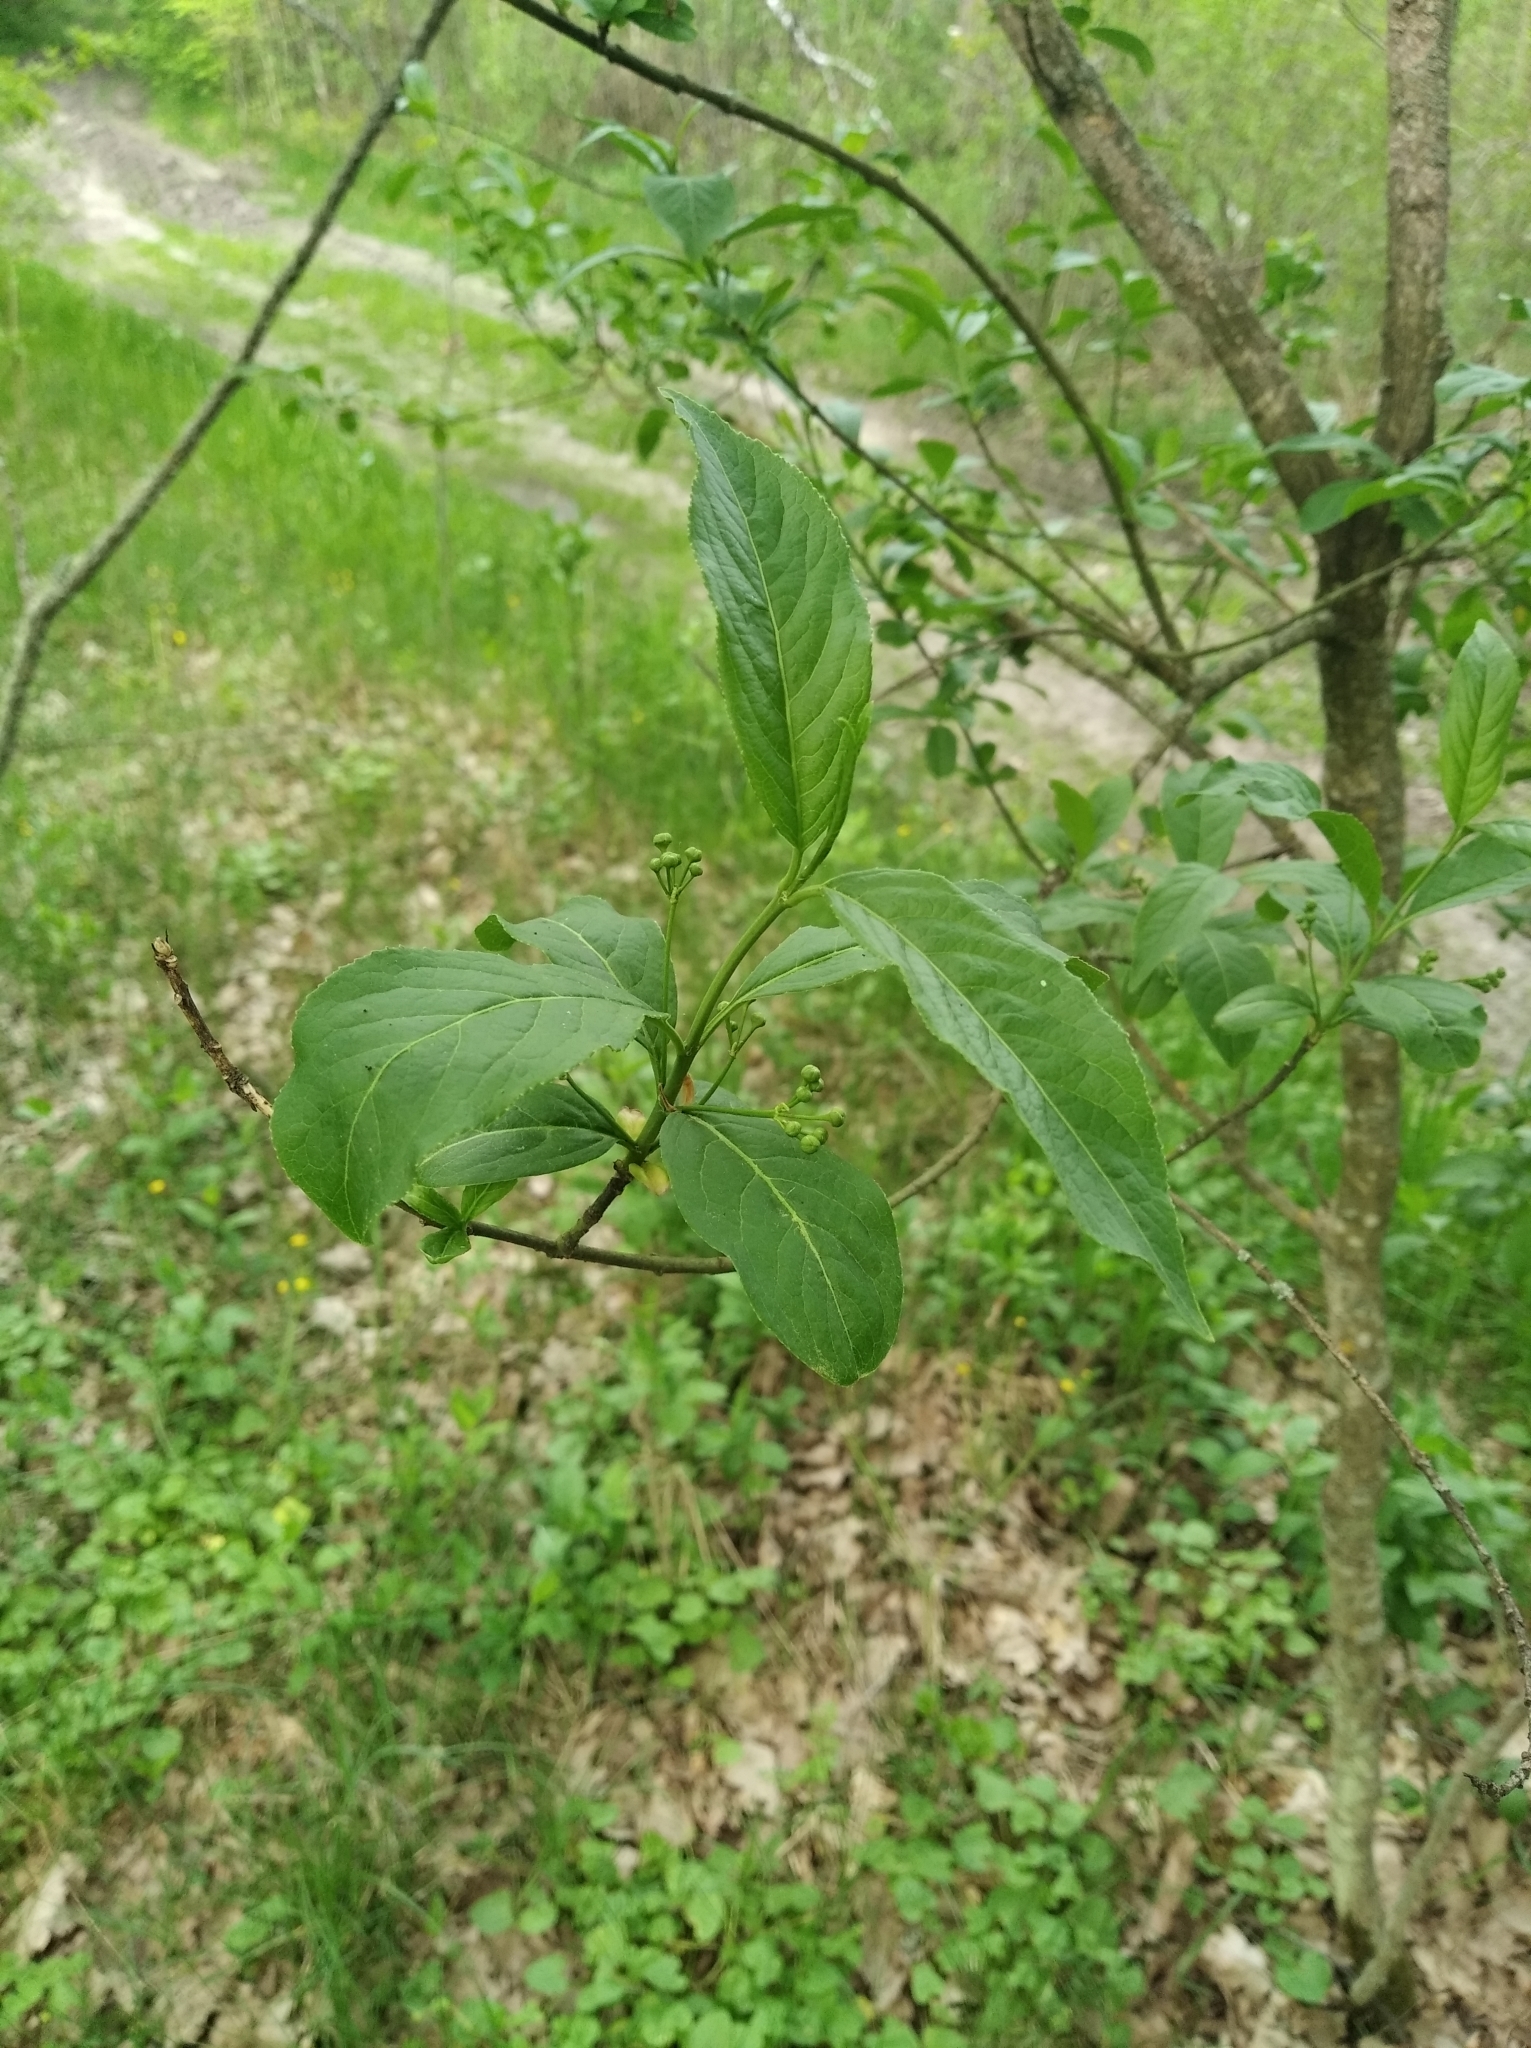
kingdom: Plantae
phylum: Tracheophyta
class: Magnoliopsida
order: Celastrales
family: Celastraceae
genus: Euonymus
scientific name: Euonymus europaeus
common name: Spindle
